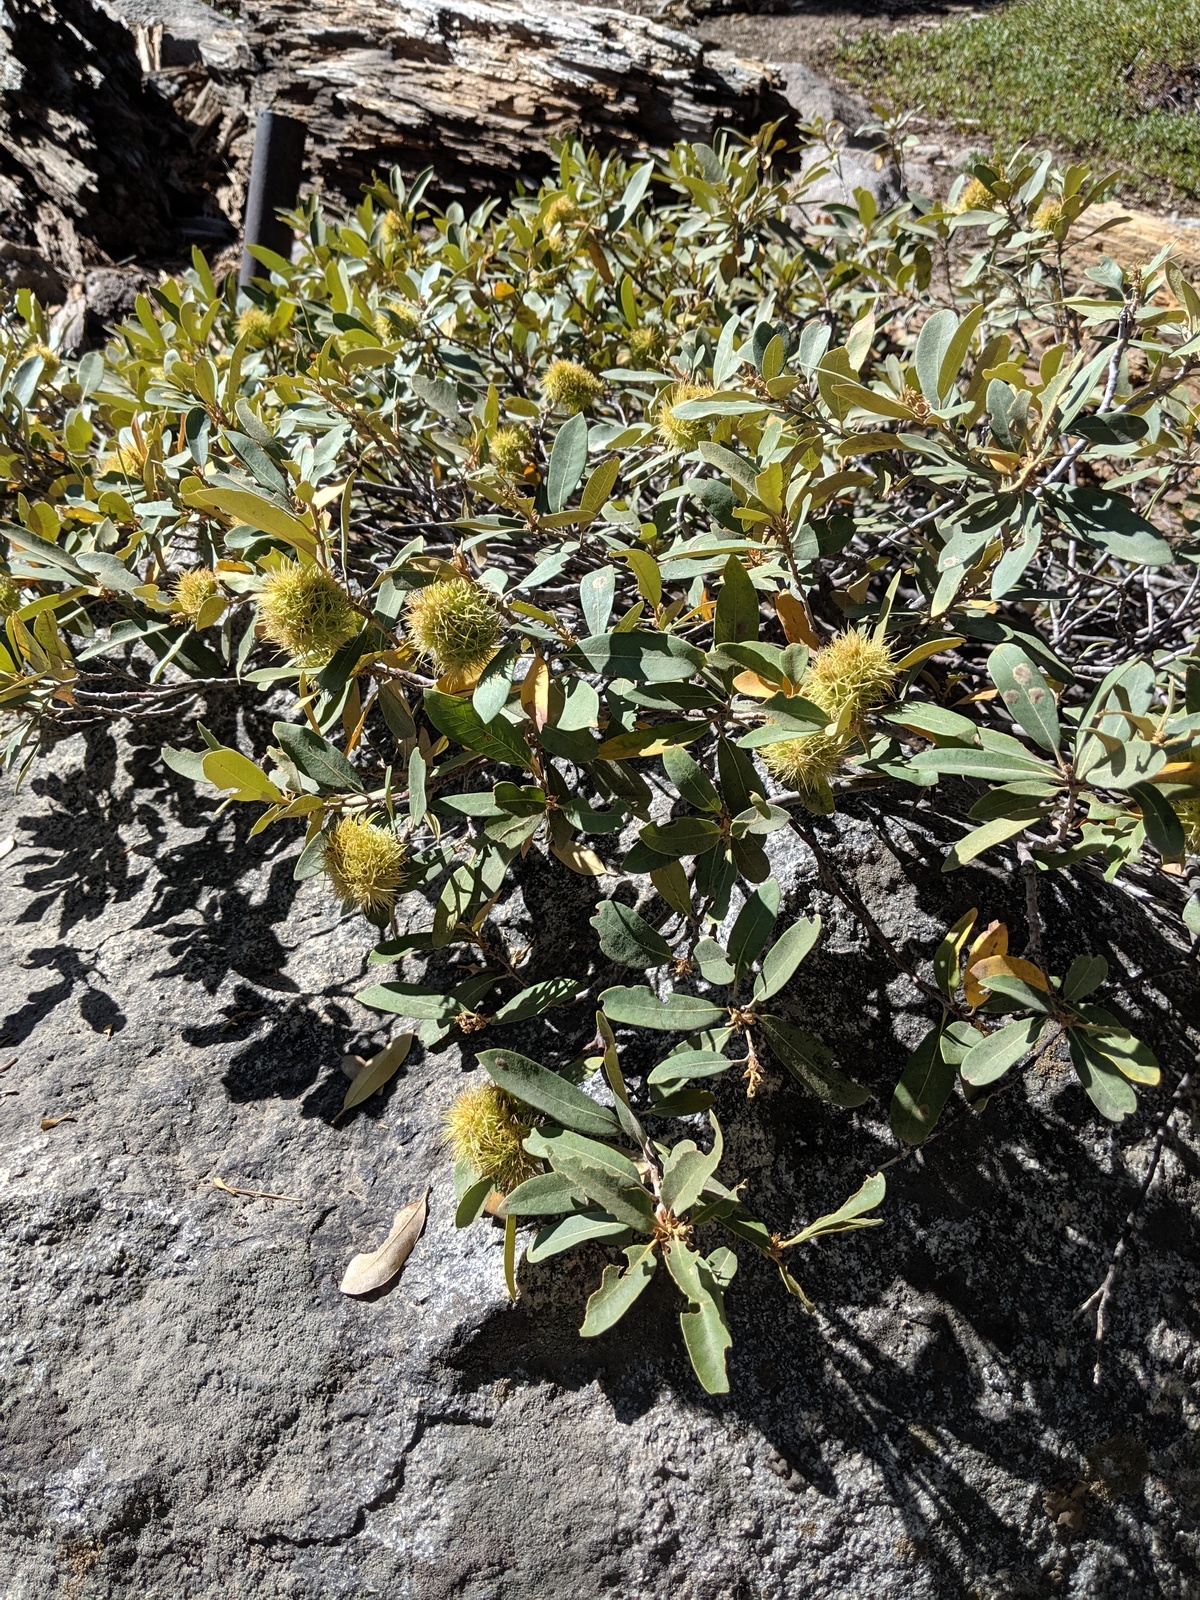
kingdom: Plantae
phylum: Tracheophyta
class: Magnoliopsida
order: Fagales
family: Fagaceae
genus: Chrysolepis
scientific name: Chrysolepis sempervirens
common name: Bush chinquapin
